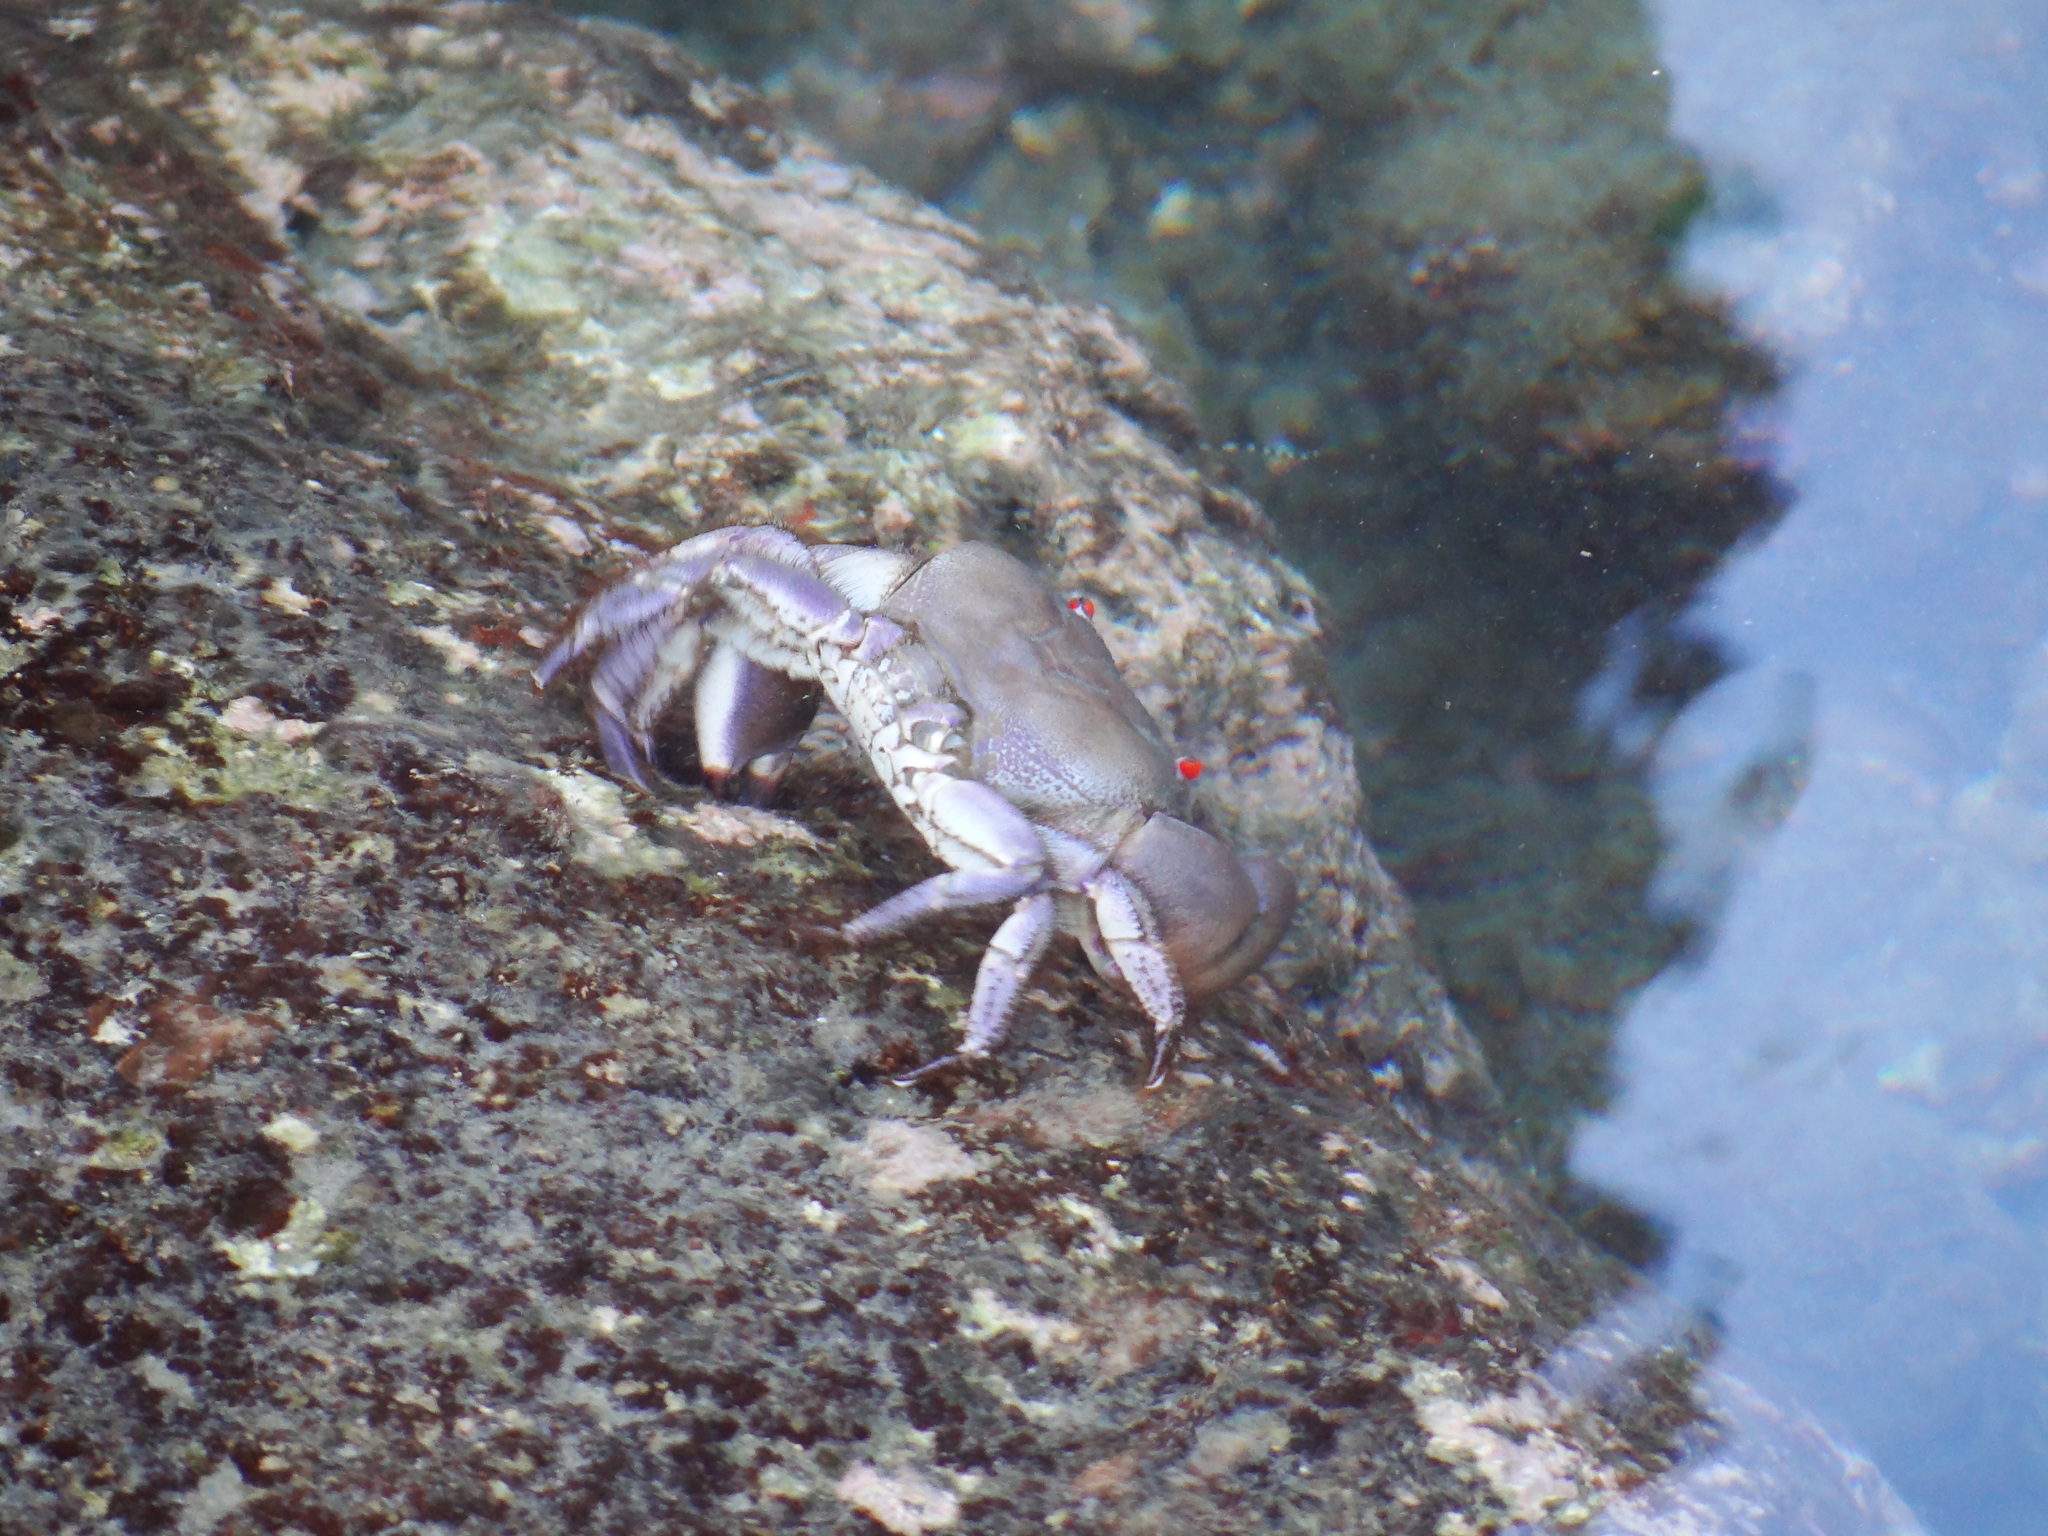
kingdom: Animalia
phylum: Arthropoda
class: Malacostraca
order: Decapoda
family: Eriphiidae
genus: Eriphia
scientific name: Eriphia sebana
